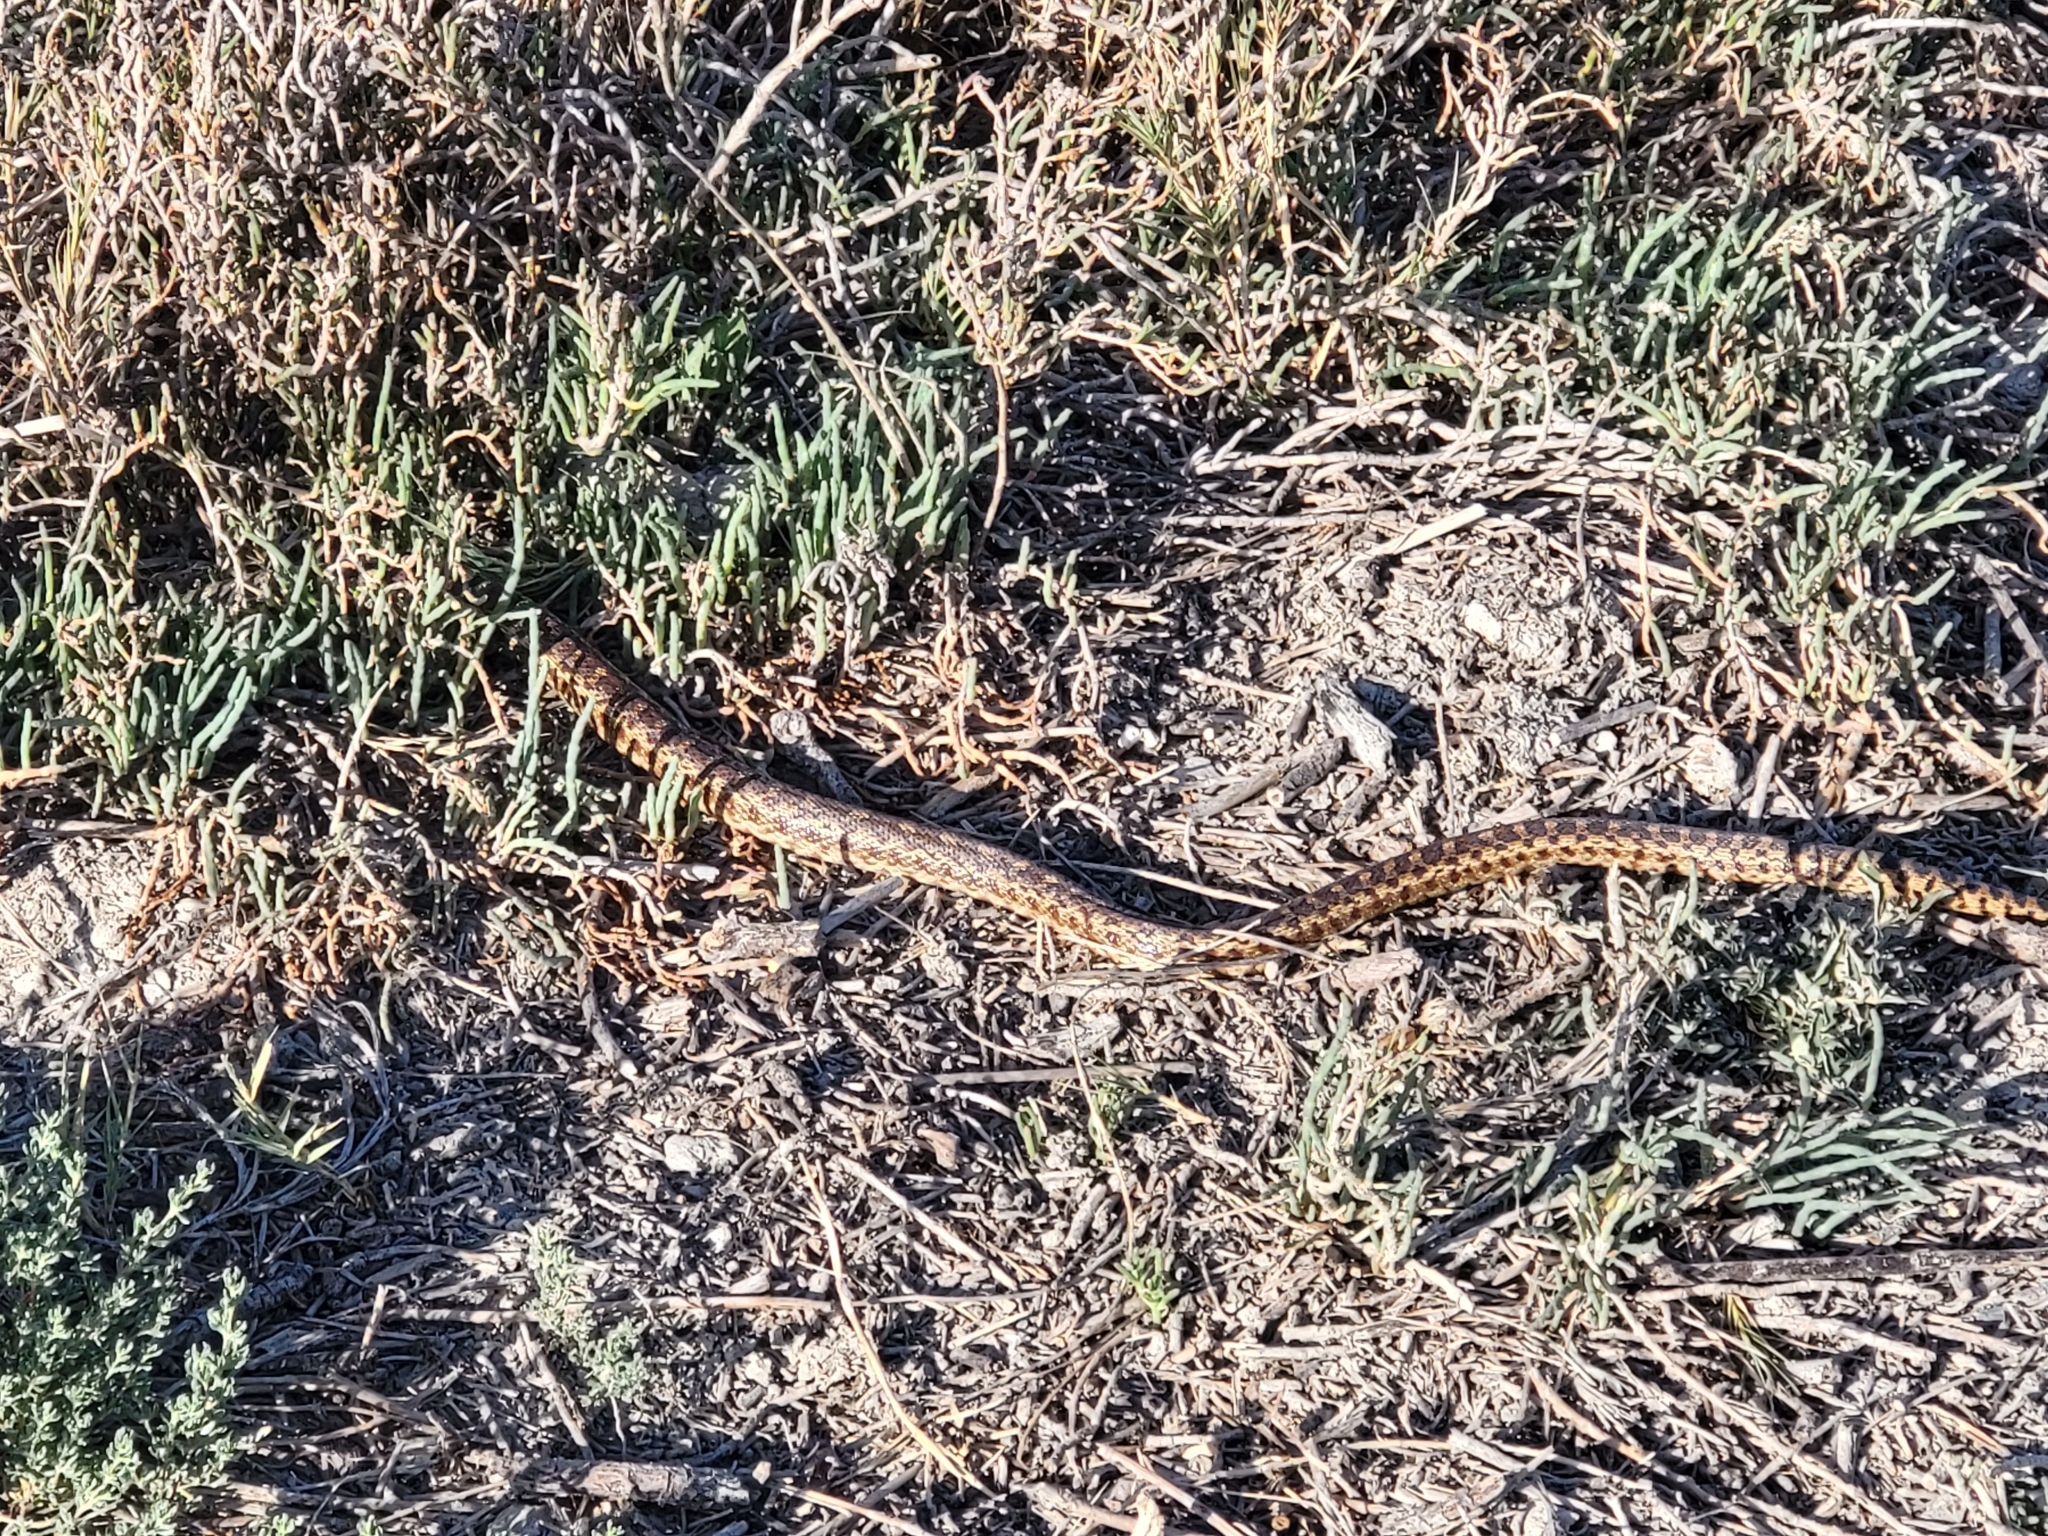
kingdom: Animalia
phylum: Chordata
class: Squamata
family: Colubridae
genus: Pituophis
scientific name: Pituophis catenifer
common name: Gopher snake
